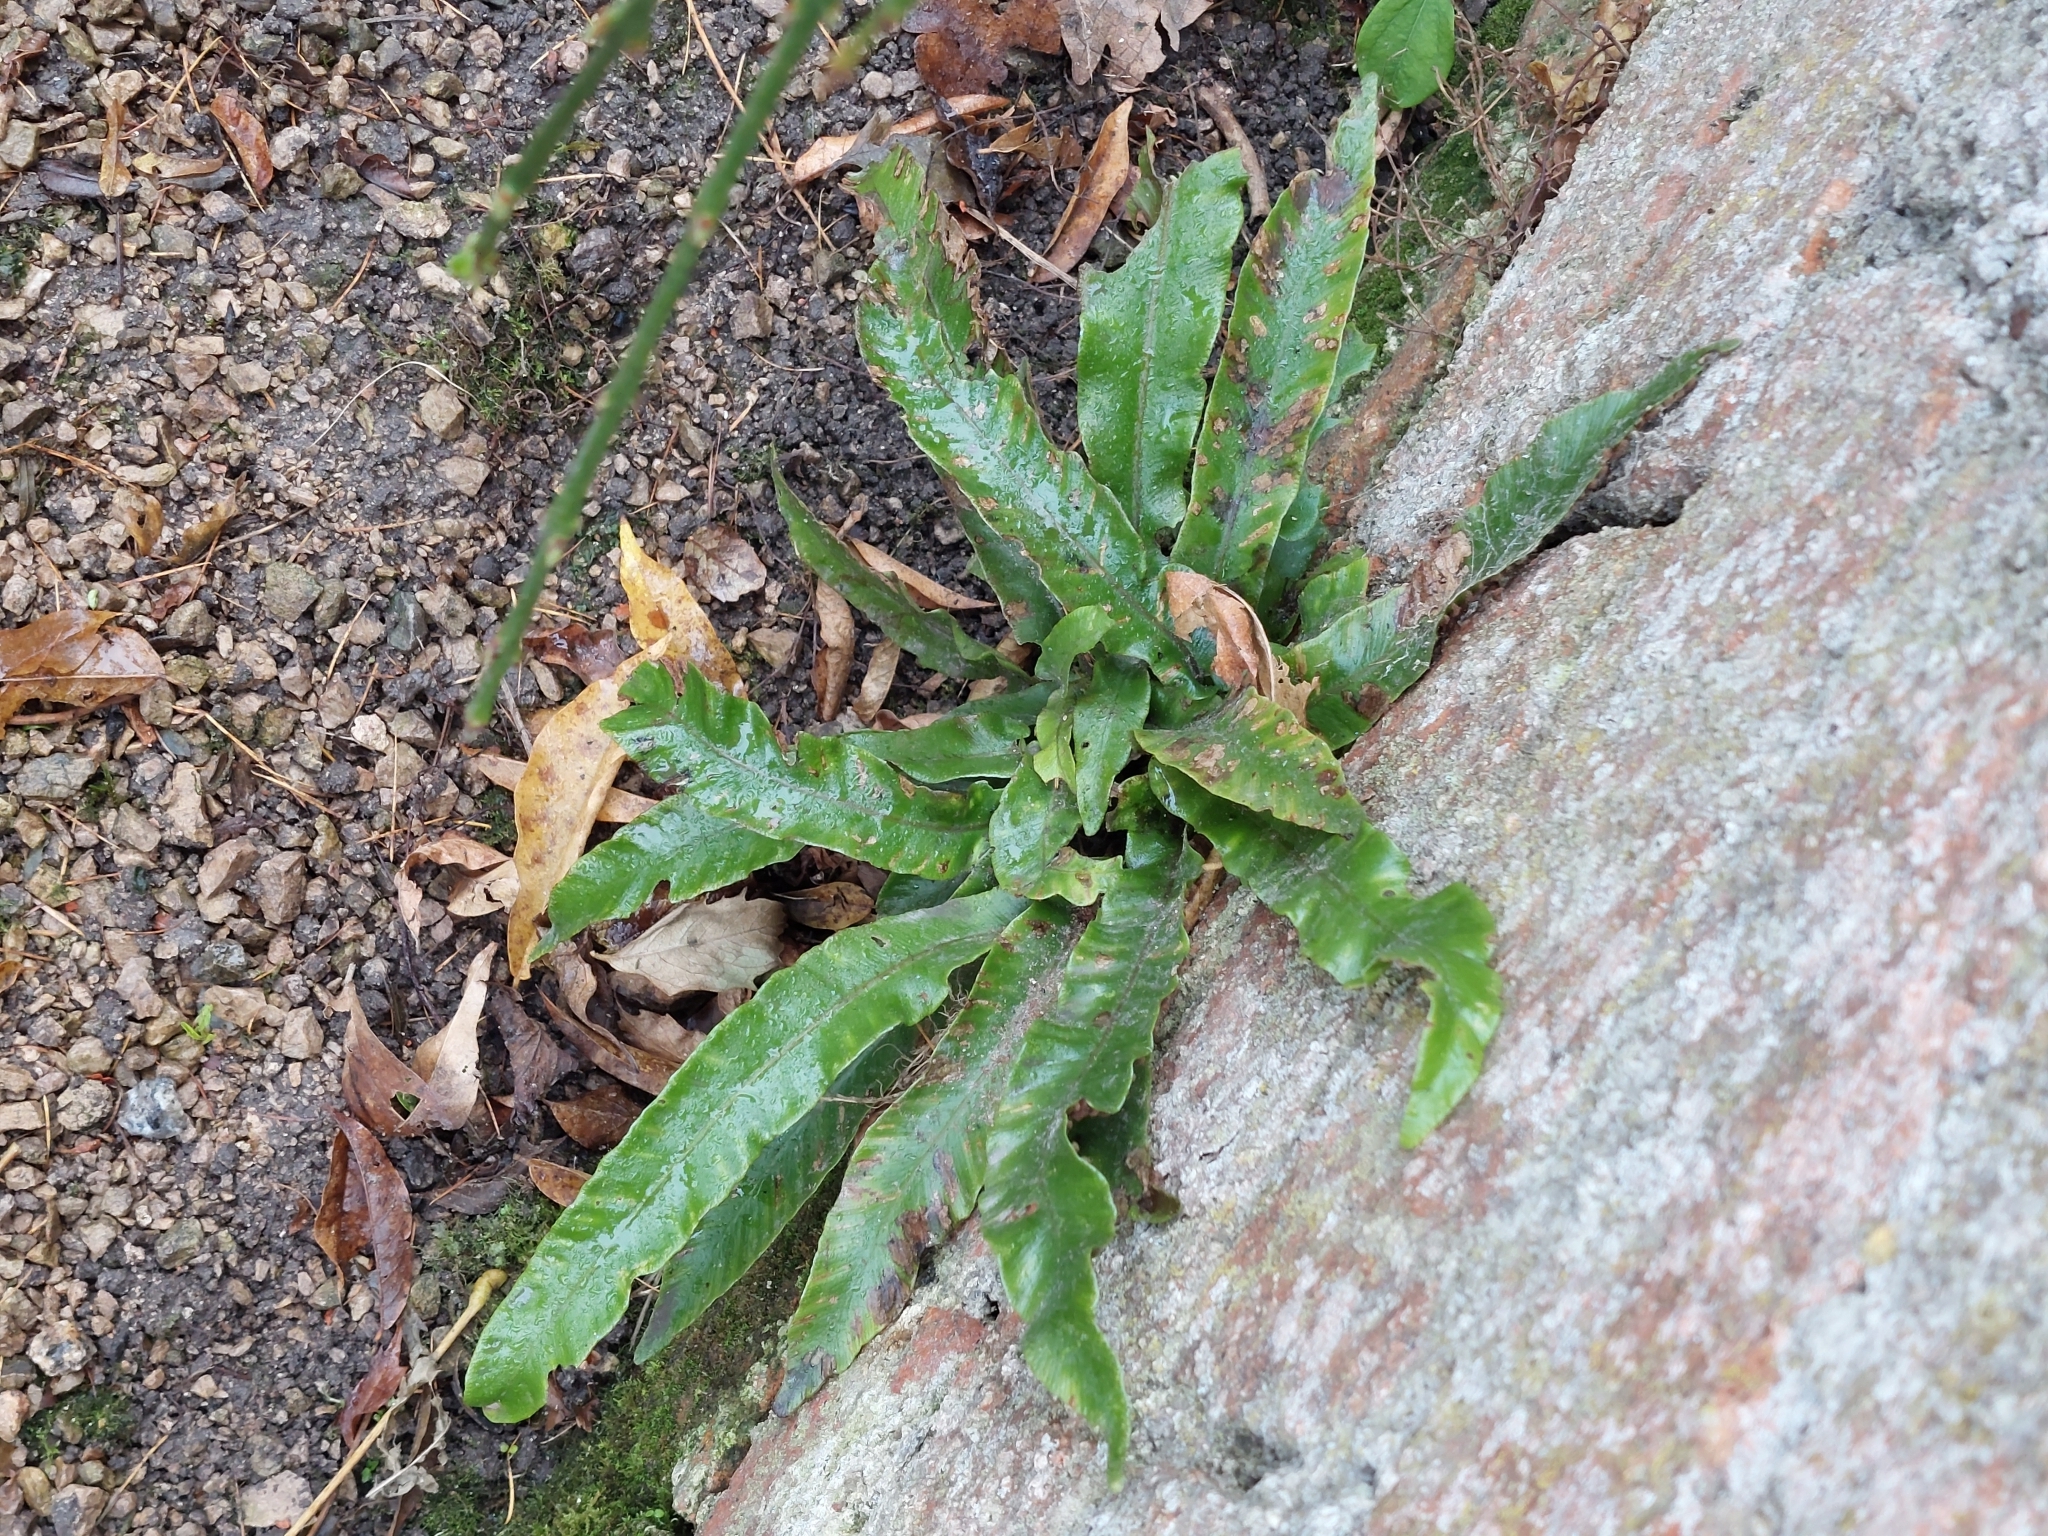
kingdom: Plantae
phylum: Tracheophyta
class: Polypodiopsida
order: Polypodiales
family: Aspleniaceae
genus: Asplenium
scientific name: Asplenium scolopendrium
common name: Hart's-tongue fern
